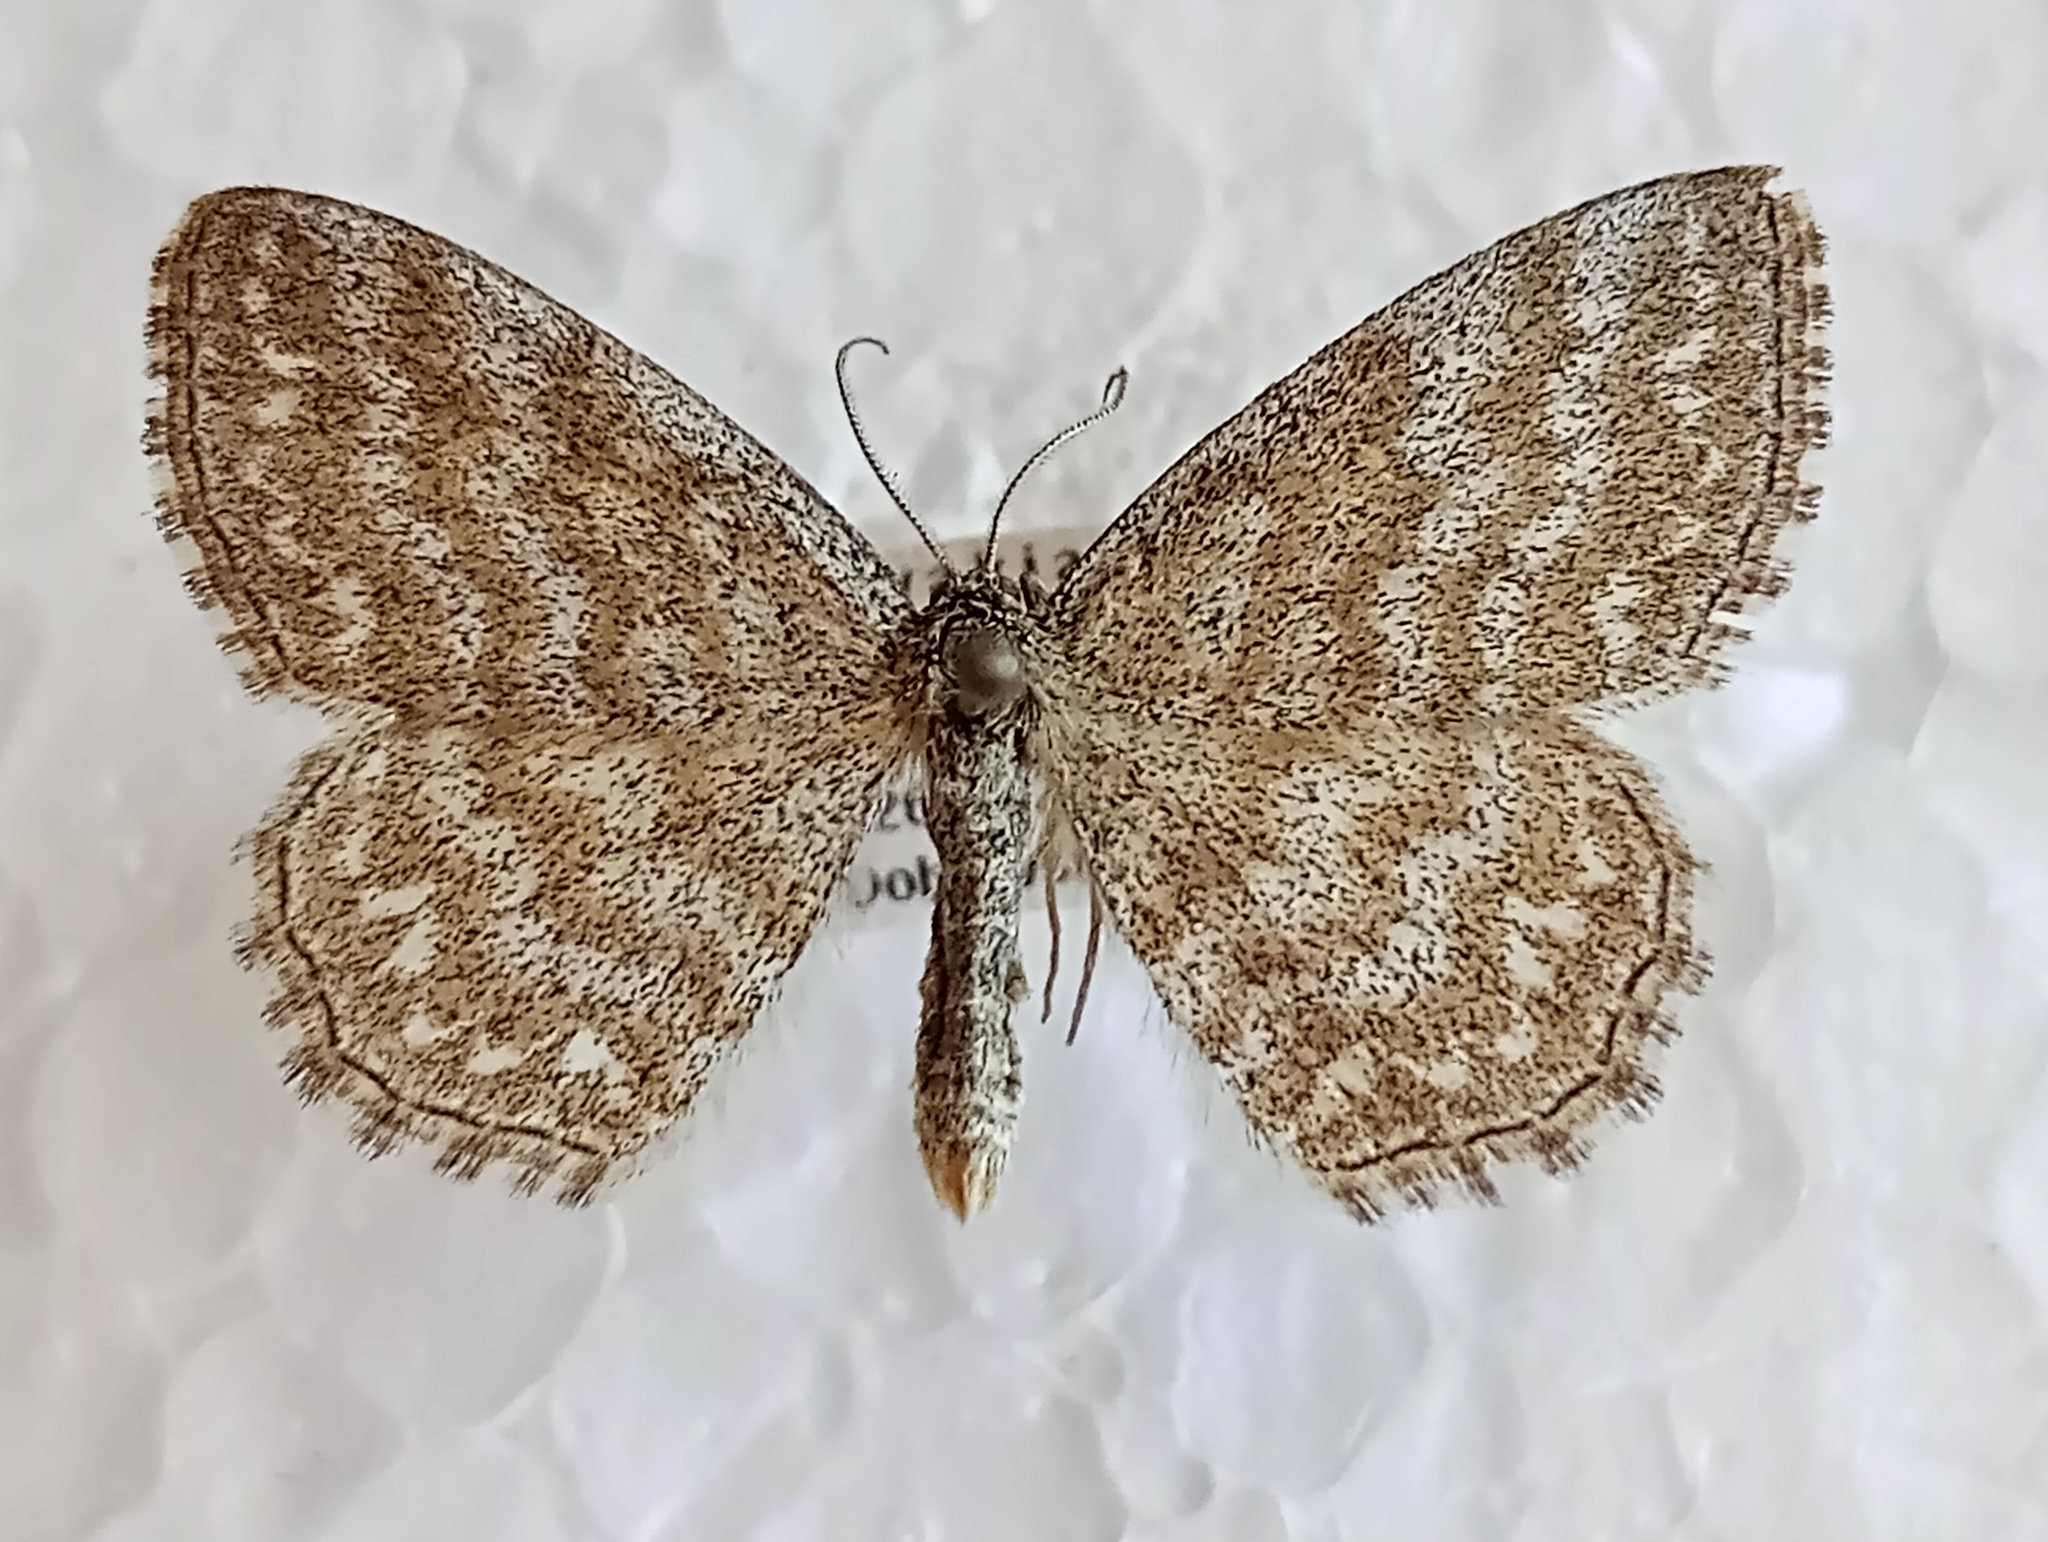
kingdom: Animalia
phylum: Arthropoda
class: Insecta
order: Lepidoptera
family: Geometridae
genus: Scopula
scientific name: Scopula immorata
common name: Lewes wave
